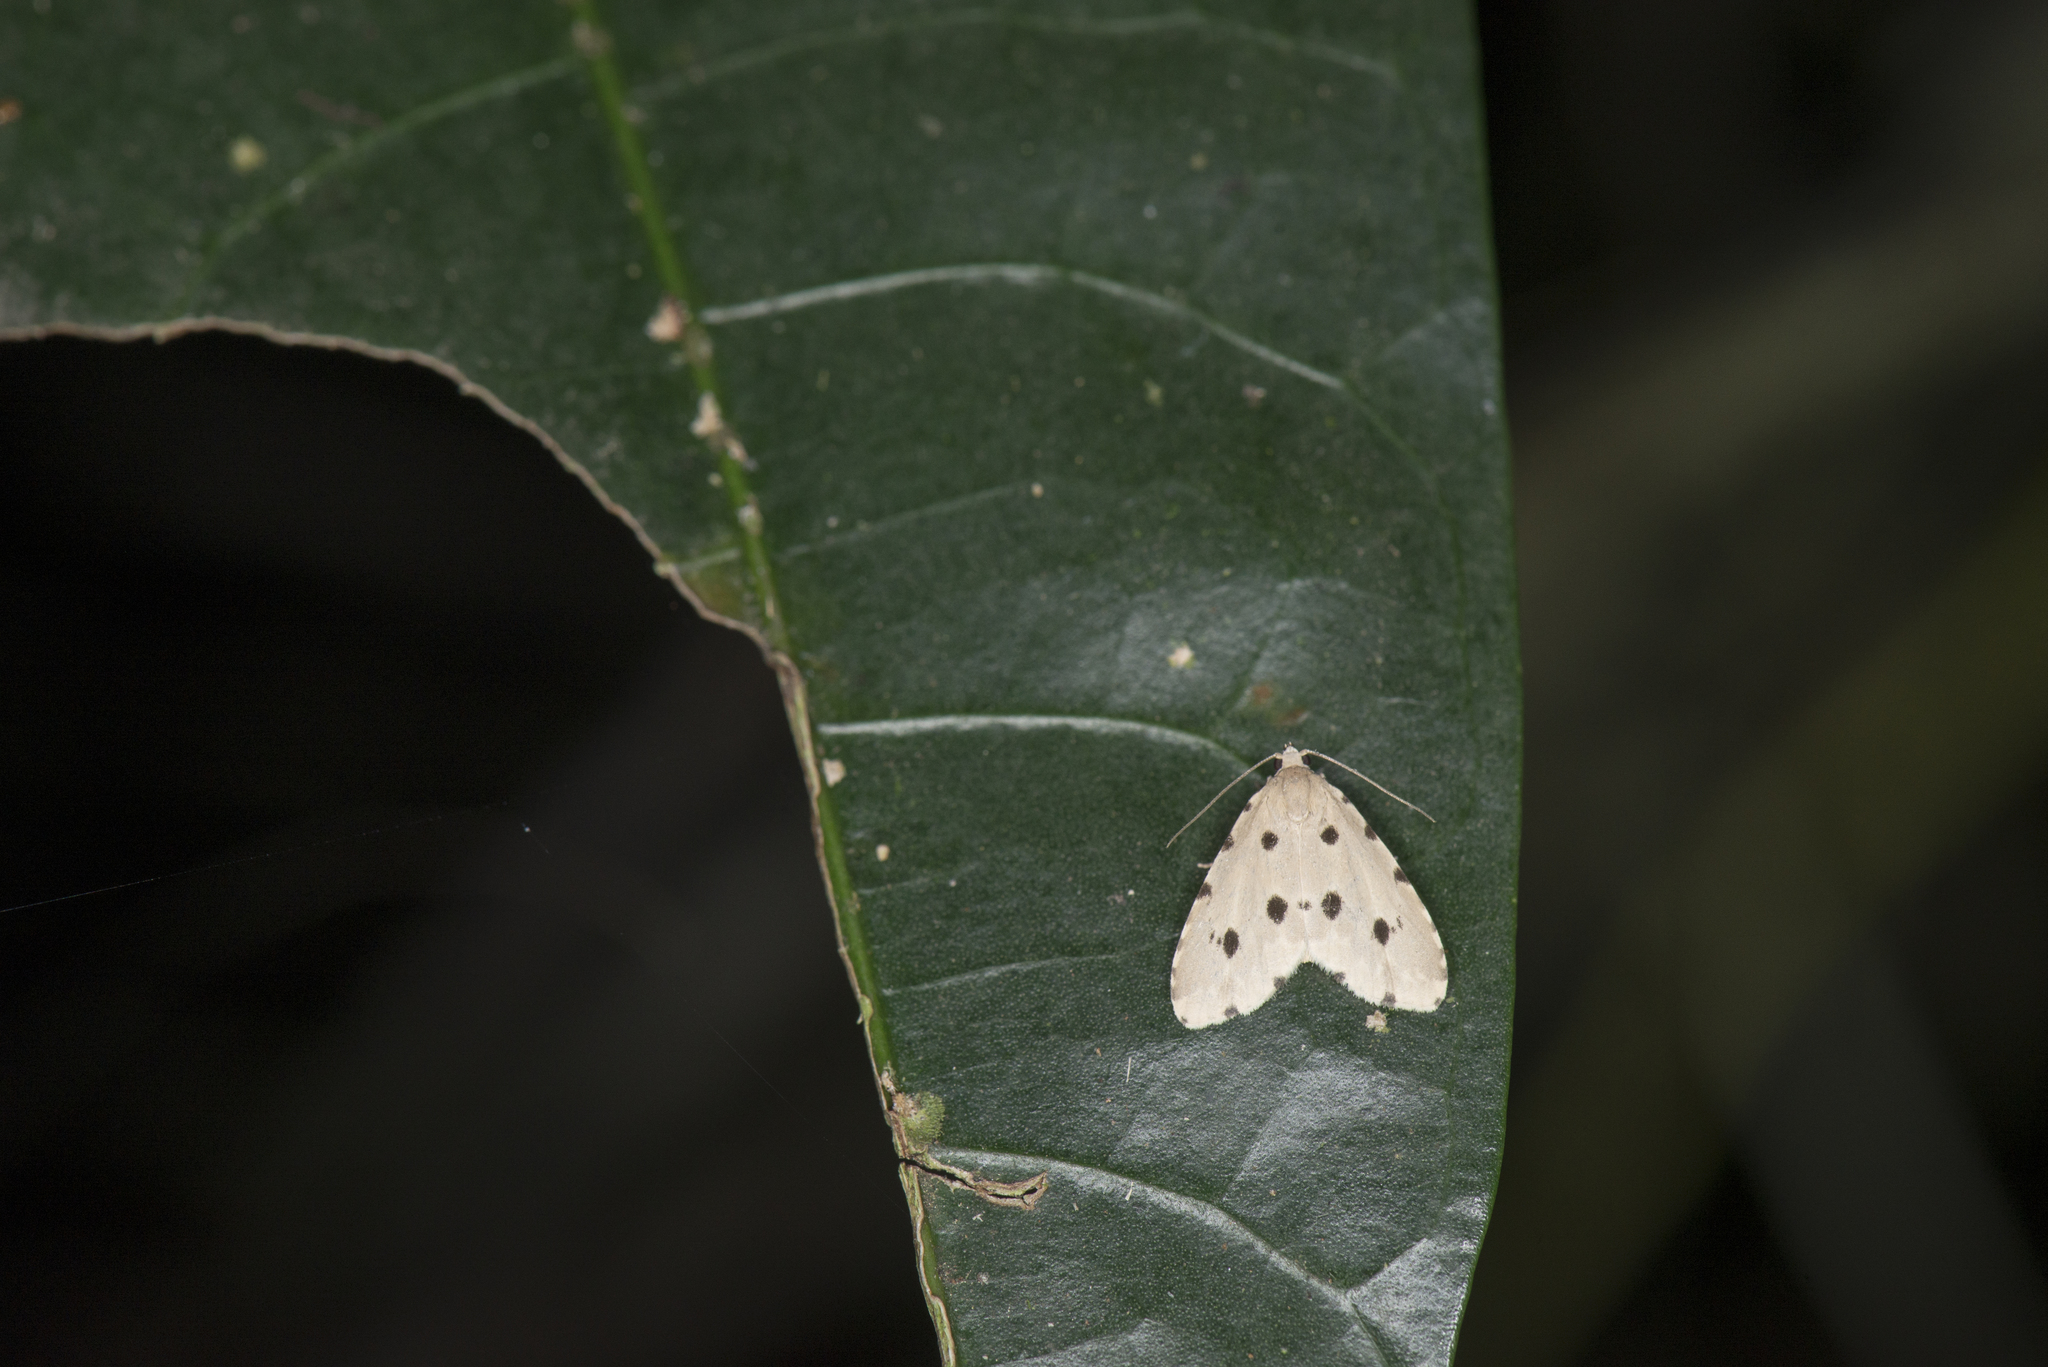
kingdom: Animalia
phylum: Arthropoda
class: Insecta
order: Lepidoptera
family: Noctuidae
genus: Metaemene
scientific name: Metaemene atrigutta
